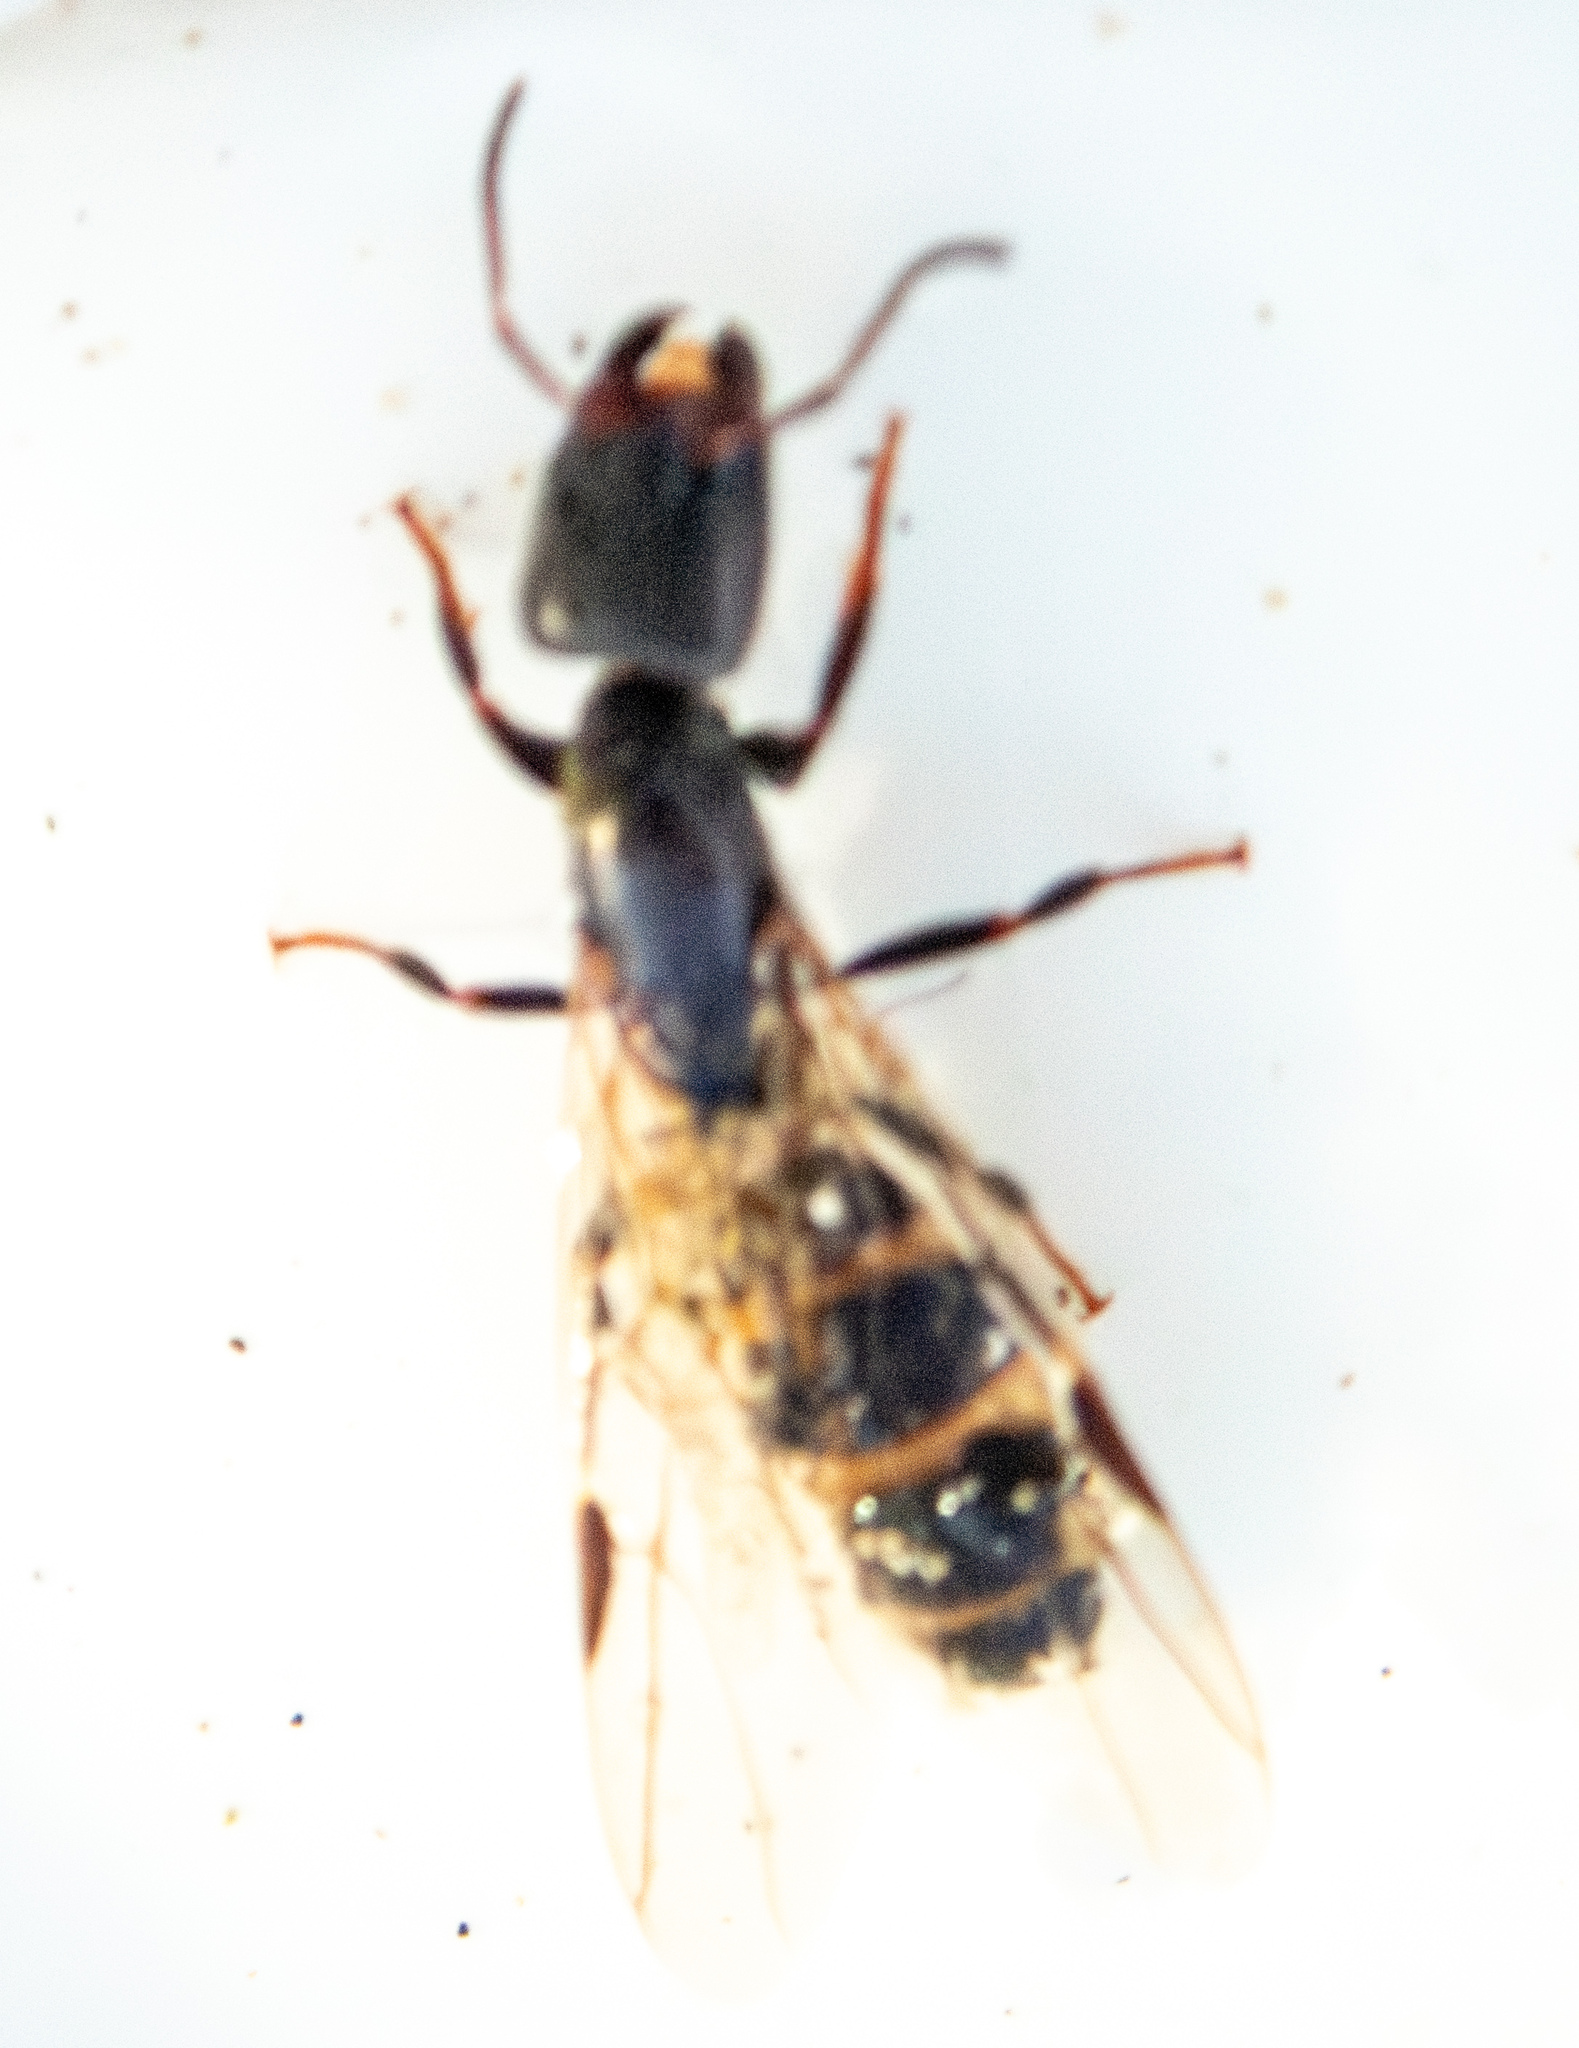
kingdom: Animalia
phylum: Arthropoda
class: Insecta
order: Hymenoptera
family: Formicidae
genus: Azteca
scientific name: Azteca forelii
